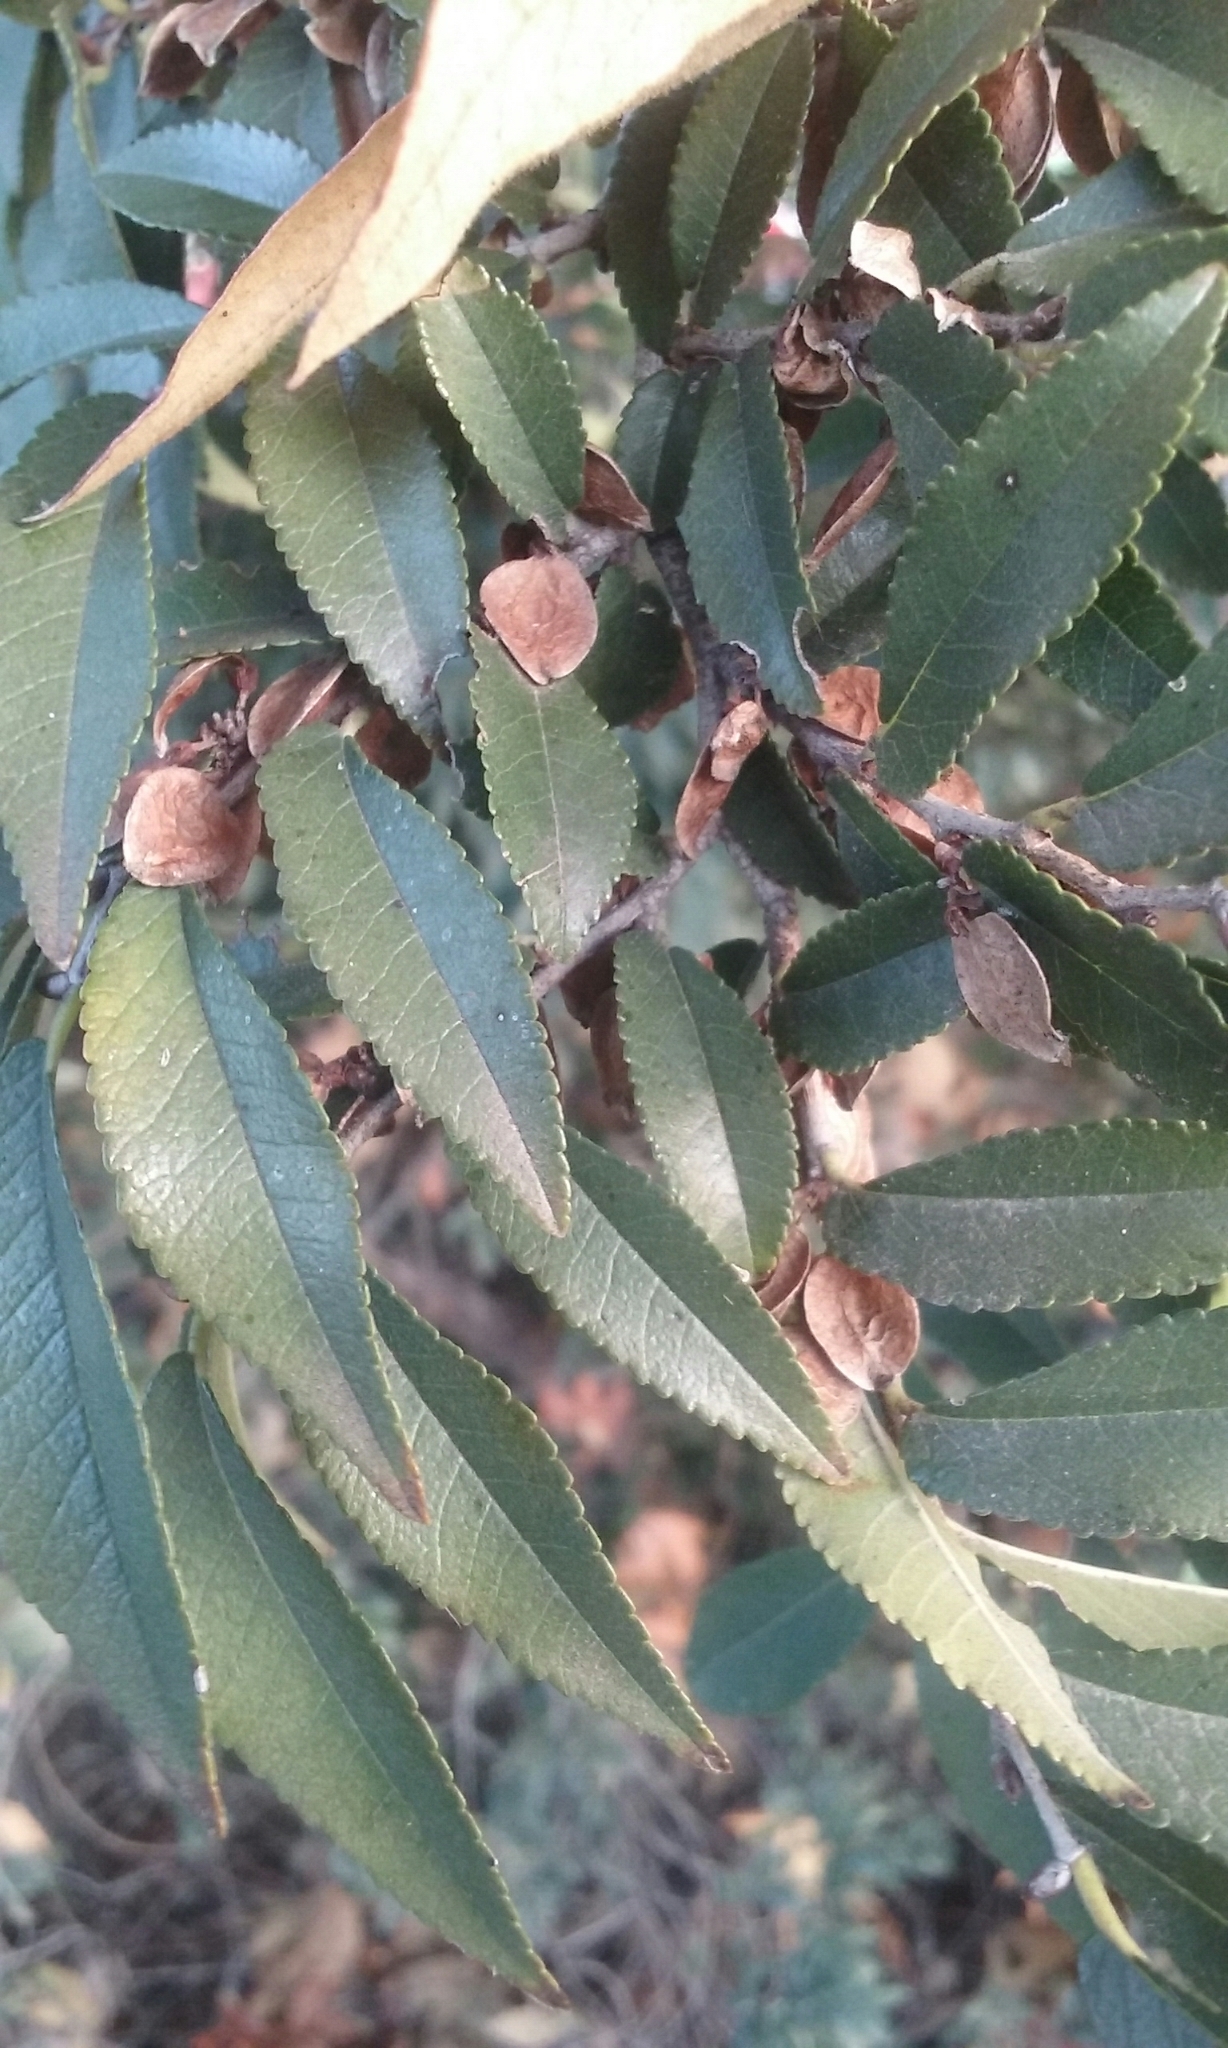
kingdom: Plantae
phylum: Tracheophyta
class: Magnoliopsida
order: Rosales
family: Ulmaceae
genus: Ulmus
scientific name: Ulmus parvifolia
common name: Chinese elm
